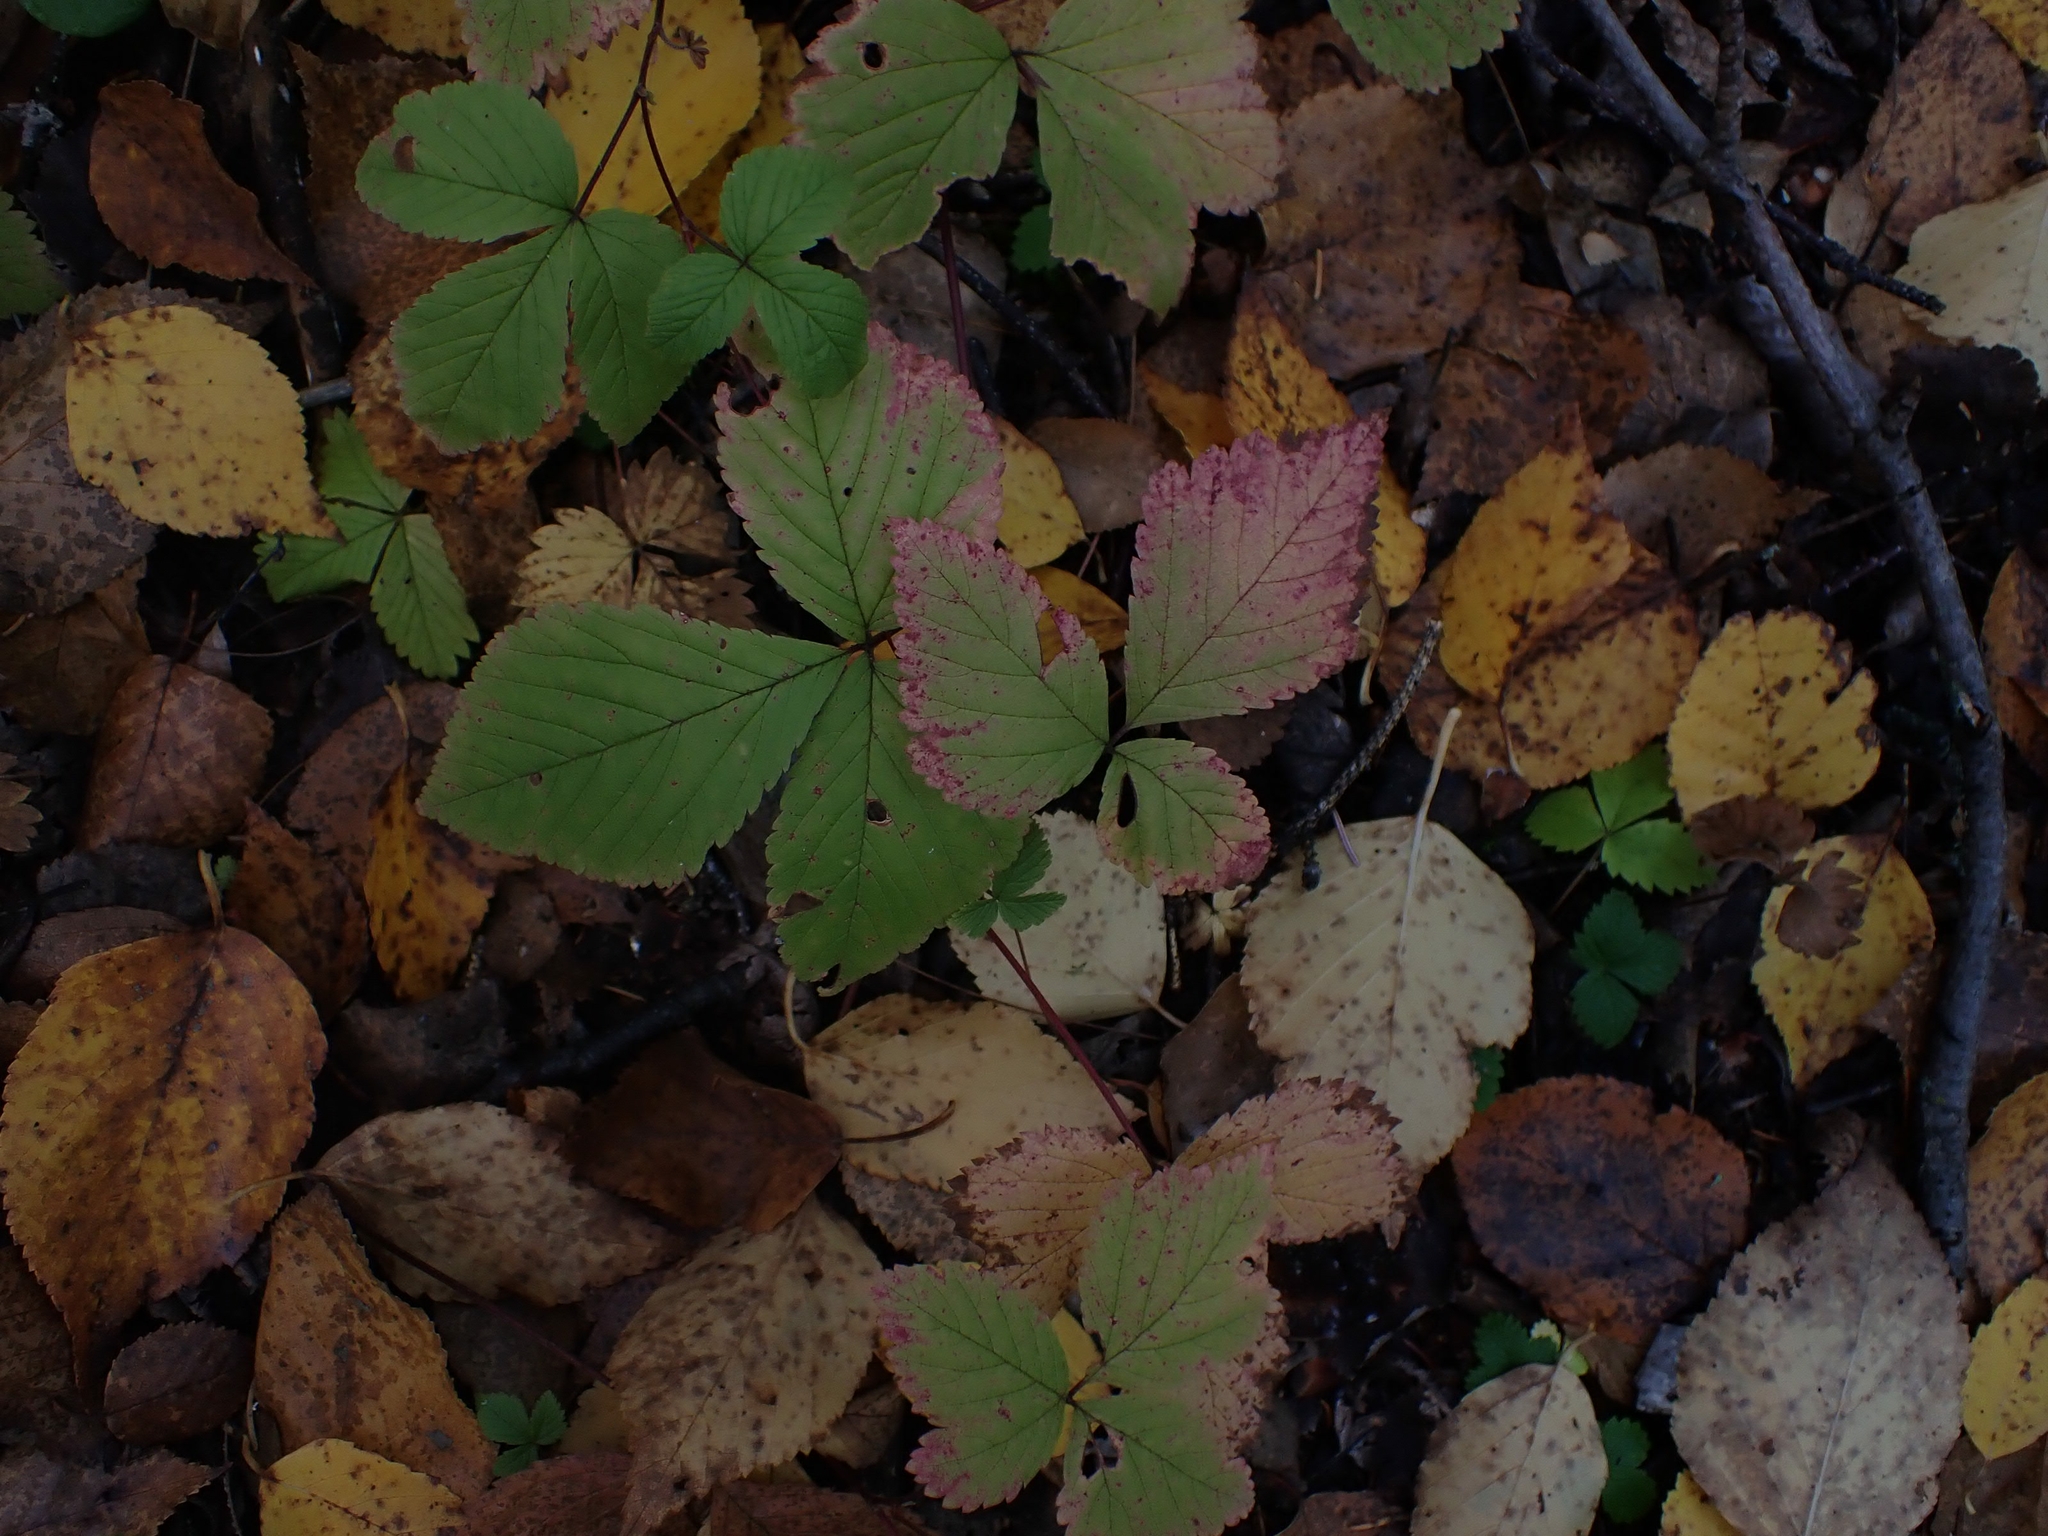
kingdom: Plantae
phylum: Tracheophyta
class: Magnoliopsida
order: Rosales
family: Rosaceae
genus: Rubus
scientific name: Rubus pubescens
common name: Dwarf raspberry
